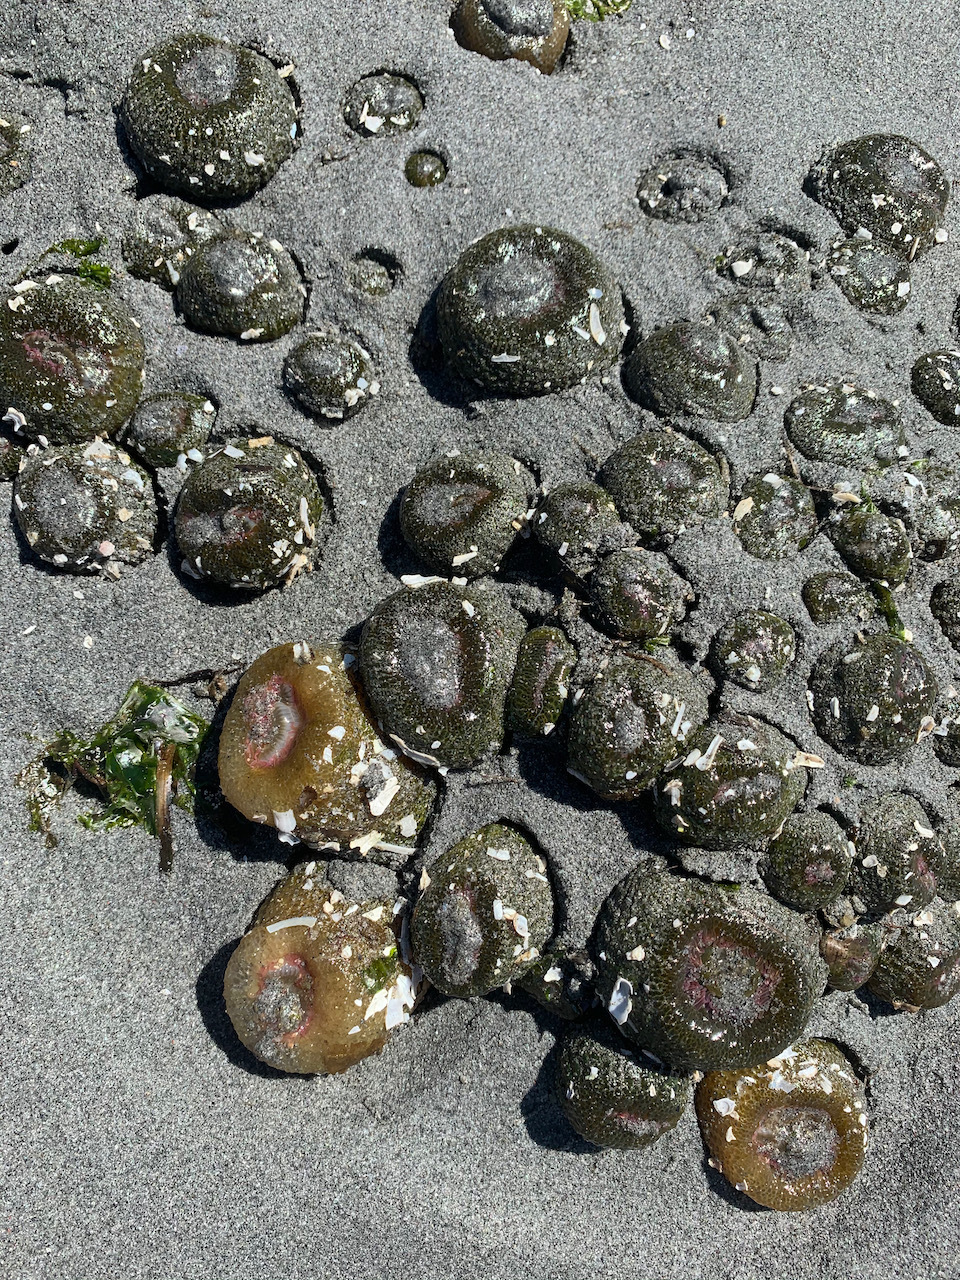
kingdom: Animalia
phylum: Cnidaria
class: Anthozoa
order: Actiniaria
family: Actiniidae
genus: Anthopleura
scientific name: Anthopleura elegantissima
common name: Clonal anemone
